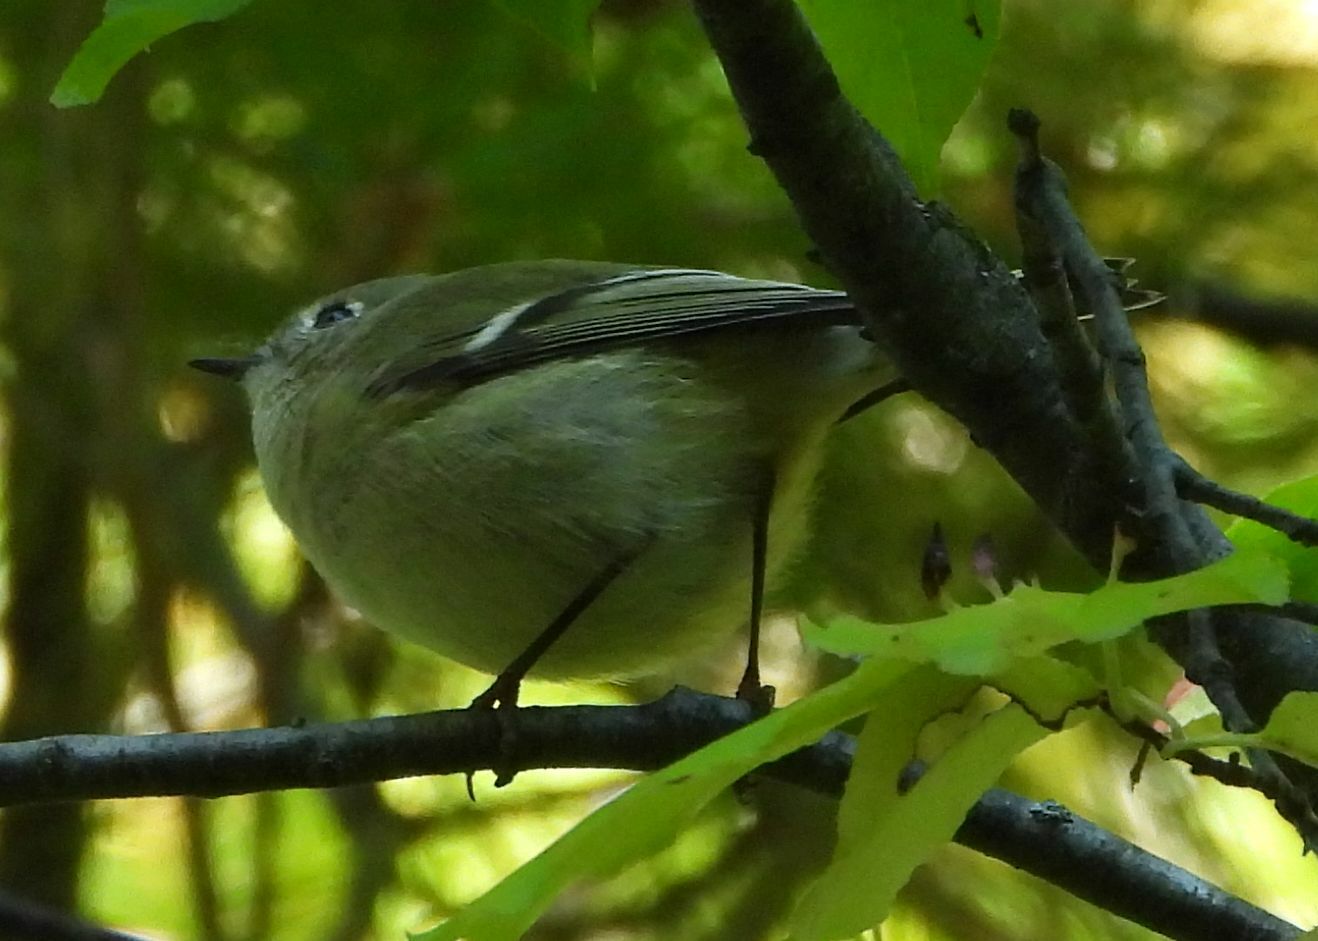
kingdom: Animalia
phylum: Chordata
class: Aves
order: Passeriformes
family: Regulidae
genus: Regulus
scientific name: Regulus calendula
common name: Ruby-crowned kinglet
